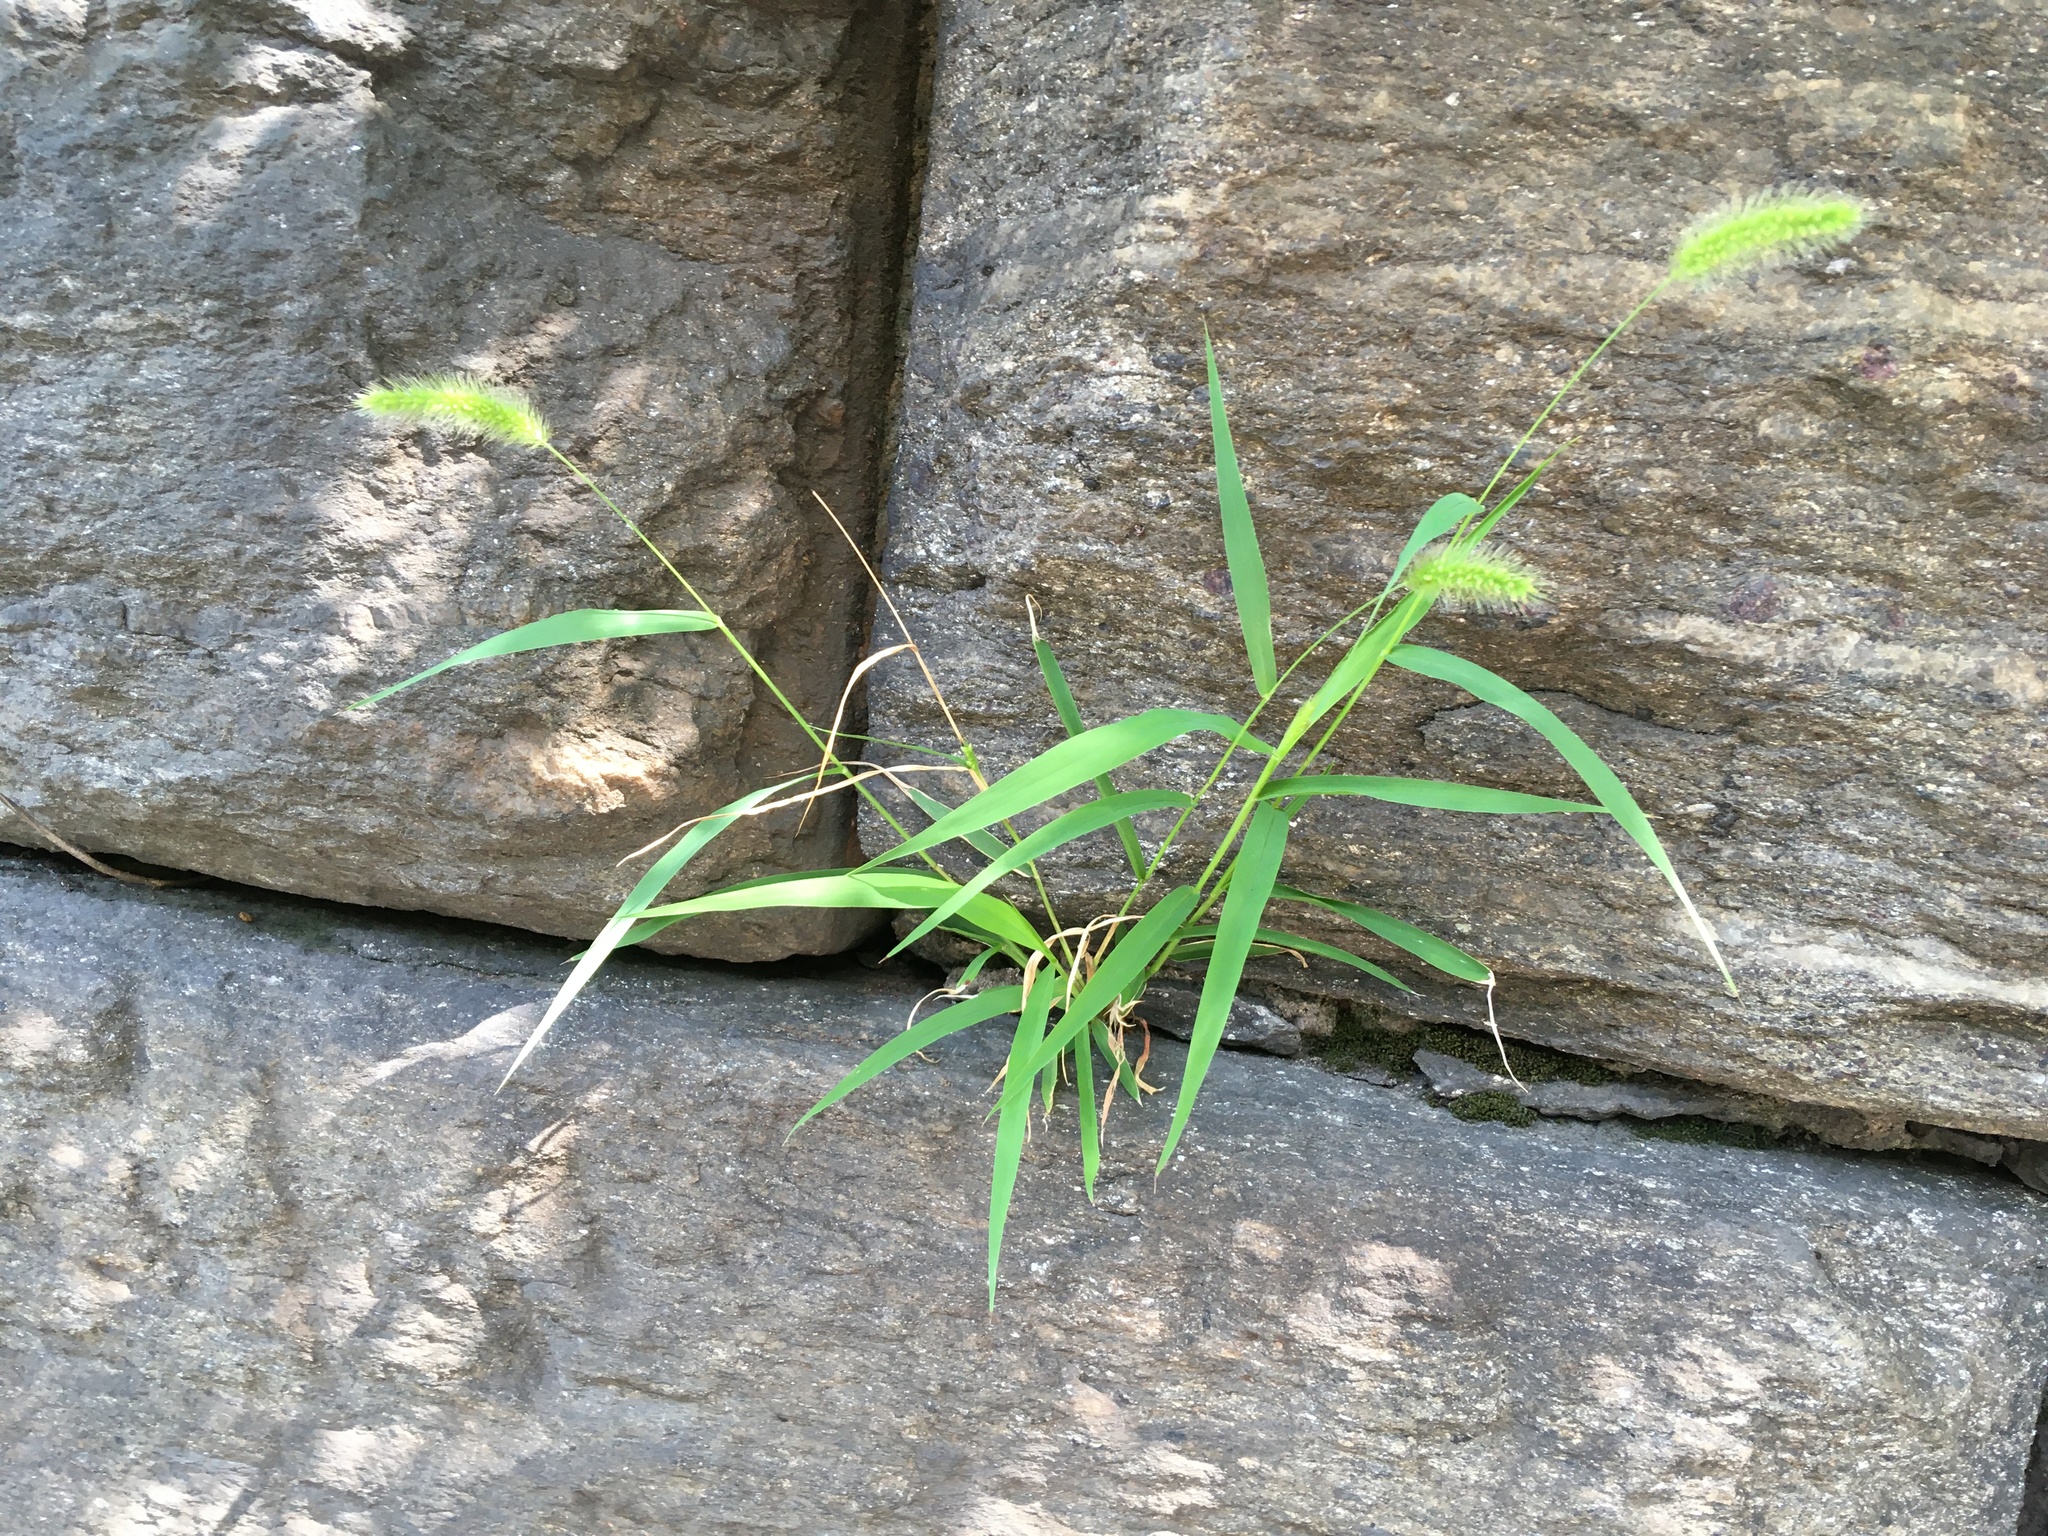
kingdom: Plantae
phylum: Tracheophyta
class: Liliopsida
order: Poales
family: Poaceae
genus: Setaria
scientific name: Setaria viridis
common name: Green bristlegrass
